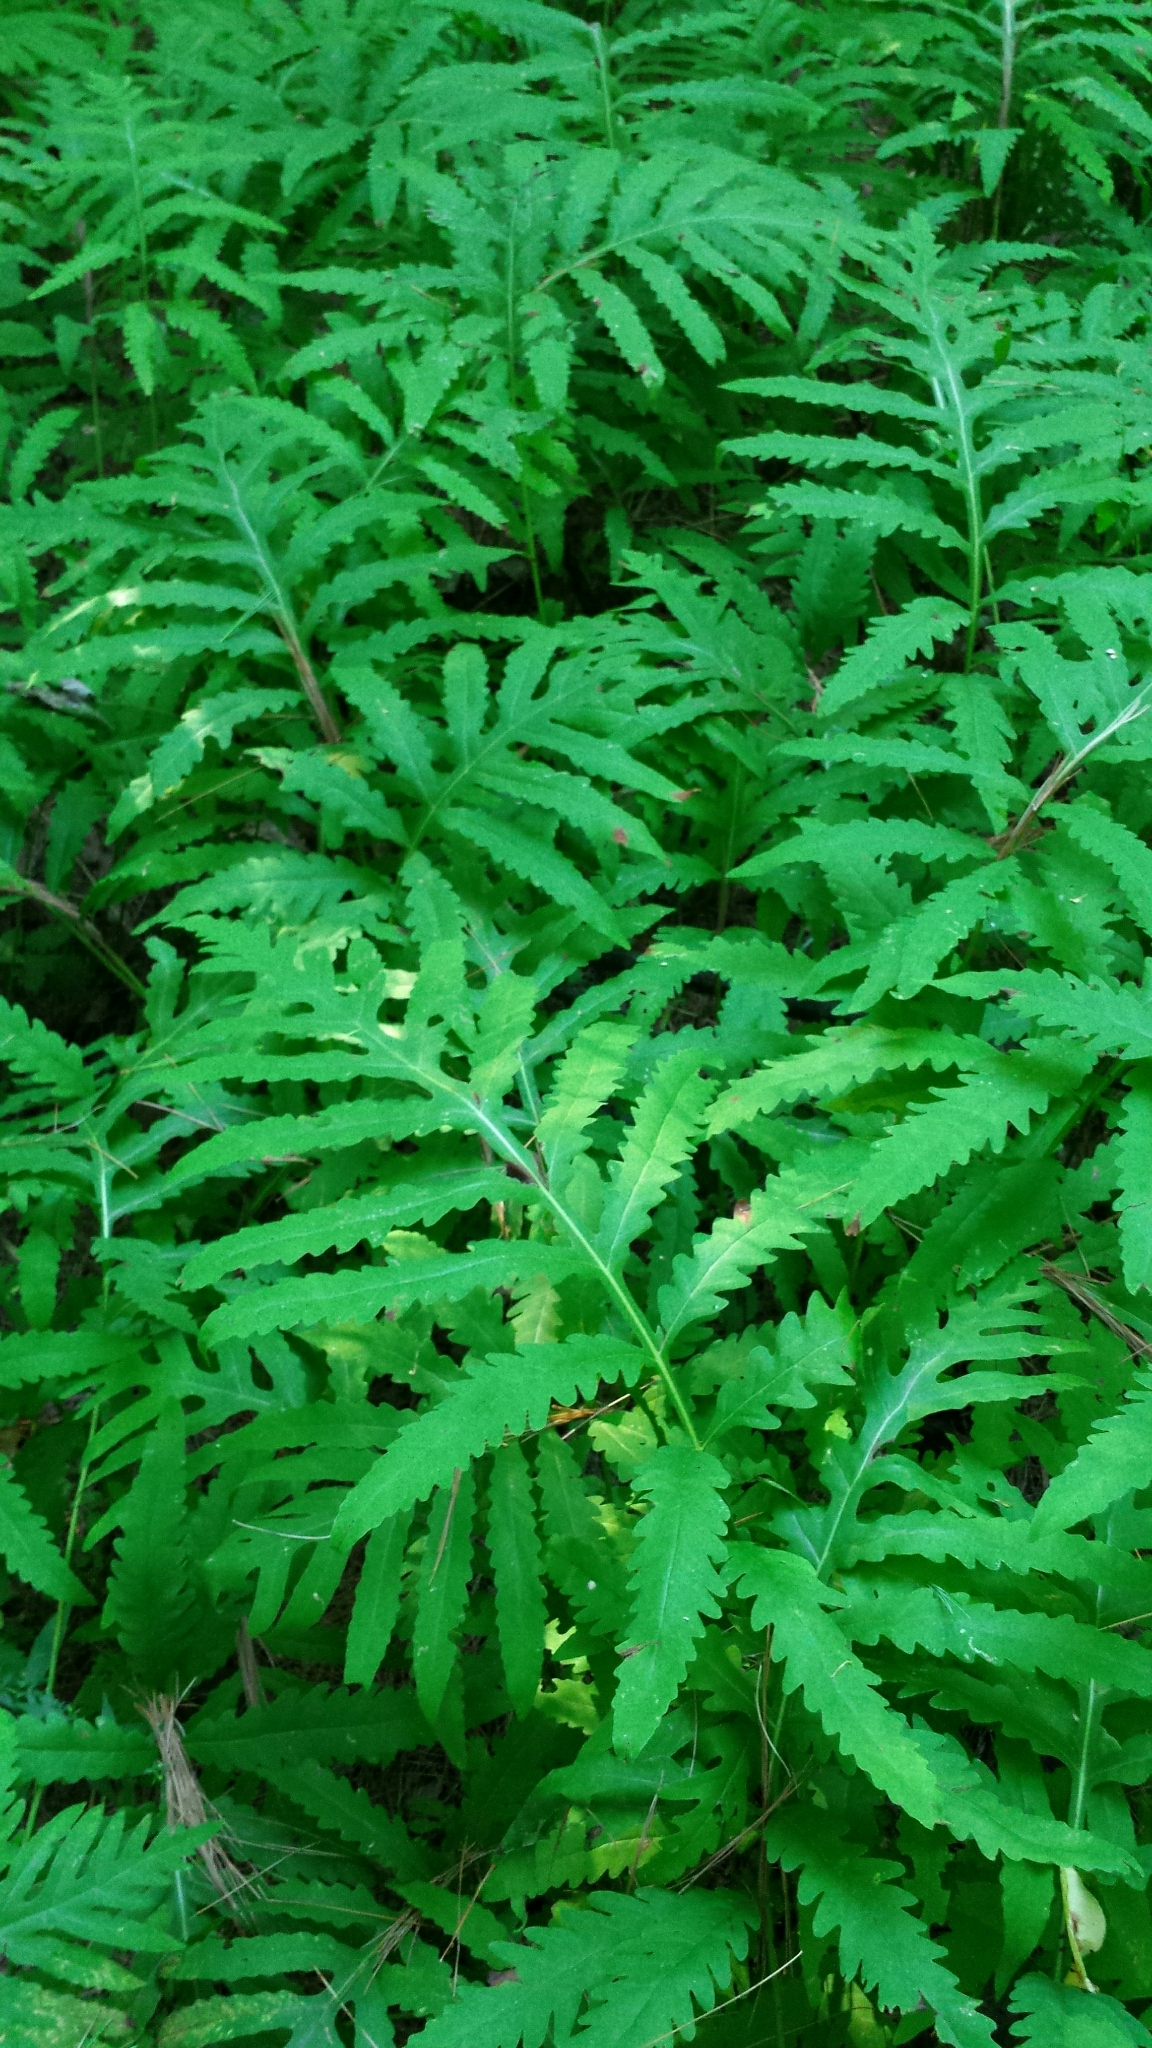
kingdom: Plantae
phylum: Tracheophyta
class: Polypodiopsida
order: Polypodiales
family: Onocleaceae
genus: Onoclea
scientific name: Onoclea sensibilis
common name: Sensitive fern
